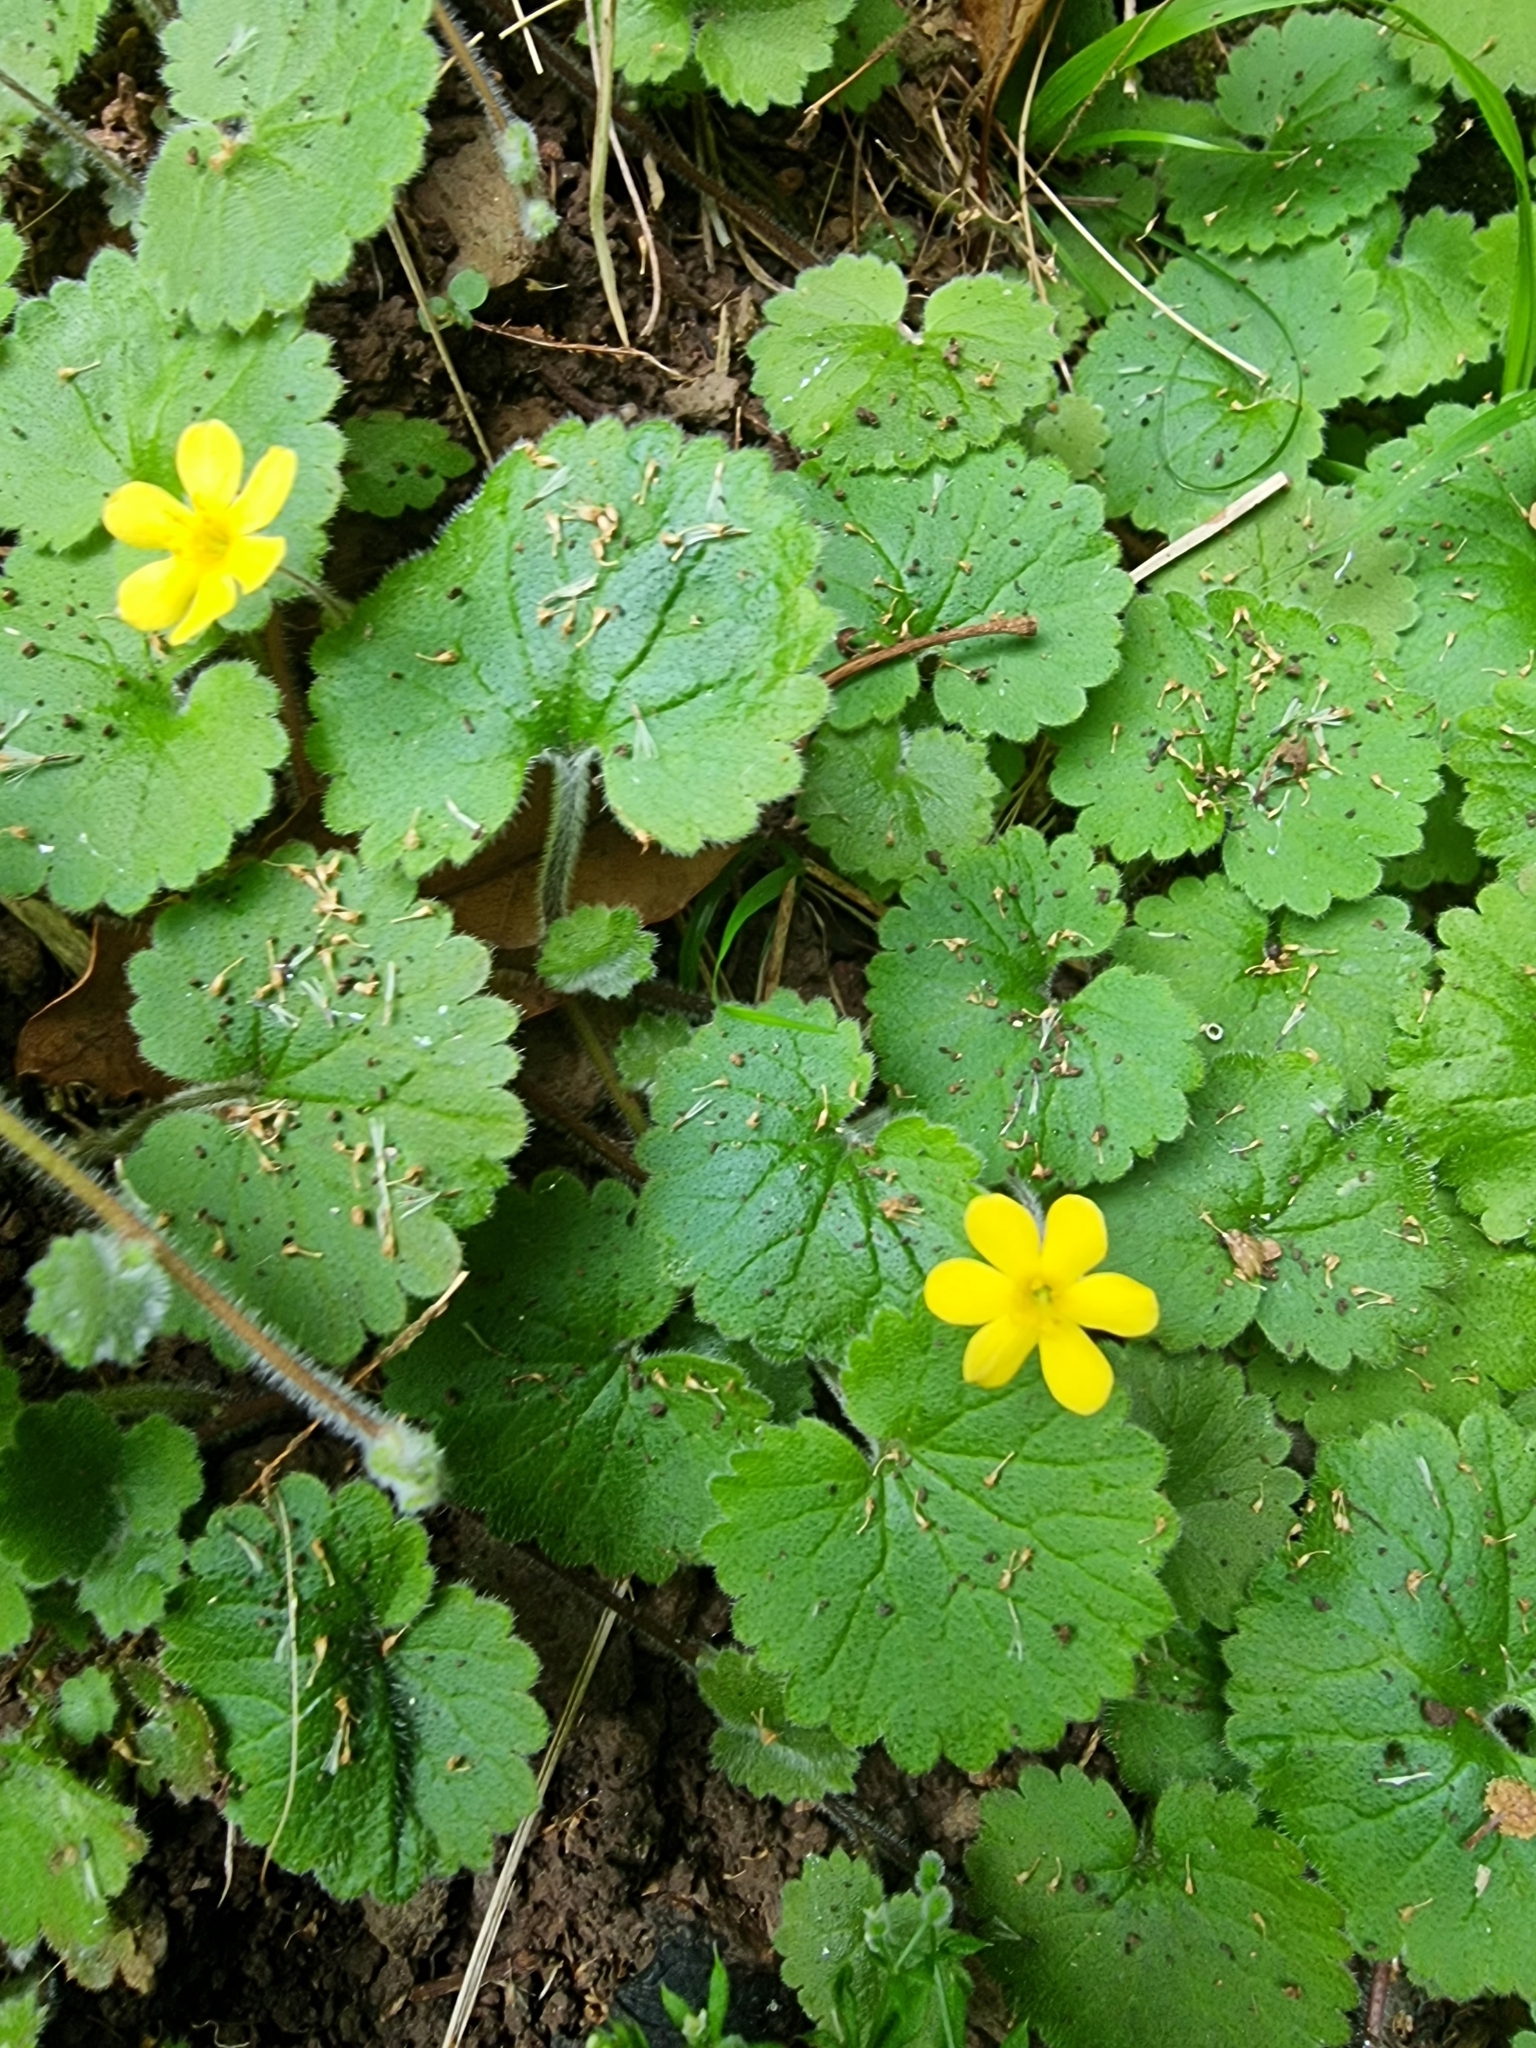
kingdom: Plantae
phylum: Tracheophyta
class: Magnoliopsida
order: Lamiales
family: Plantaginaceae
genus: Sibthorpia
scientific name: Sibthorpia peregrina
